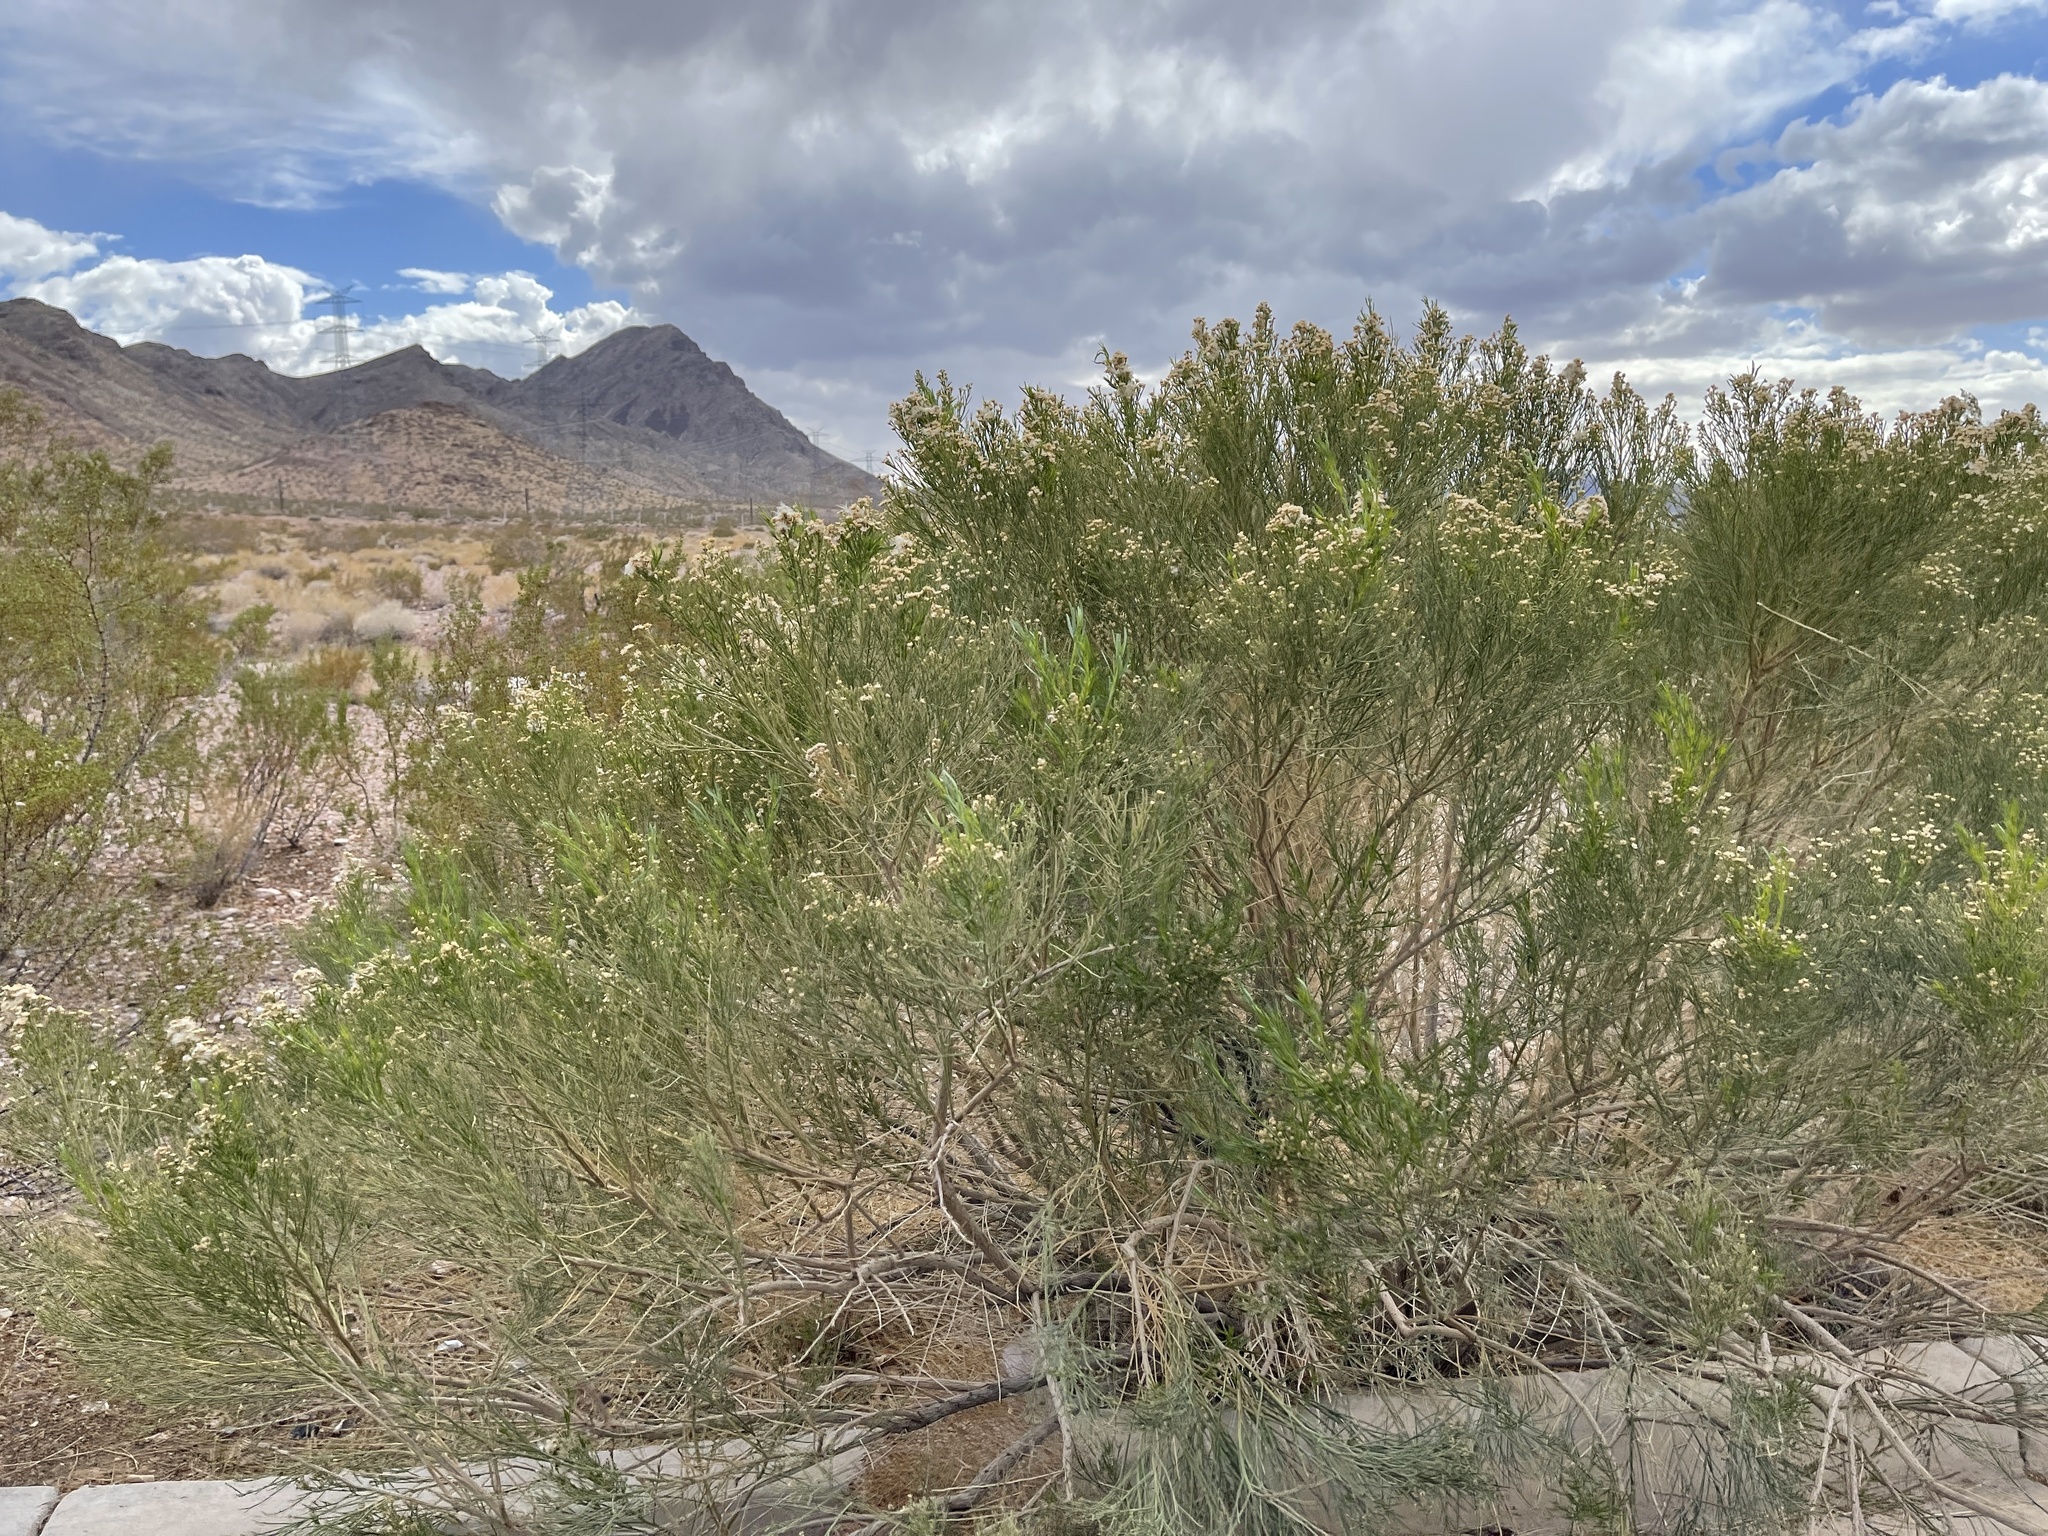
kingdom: Plantae
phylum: Tracheophyta
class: Magnoliopsida
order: Asterales
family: Asteraceae
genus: Baccharis
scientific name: Baccharis sarothroides
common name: Desert-broom
